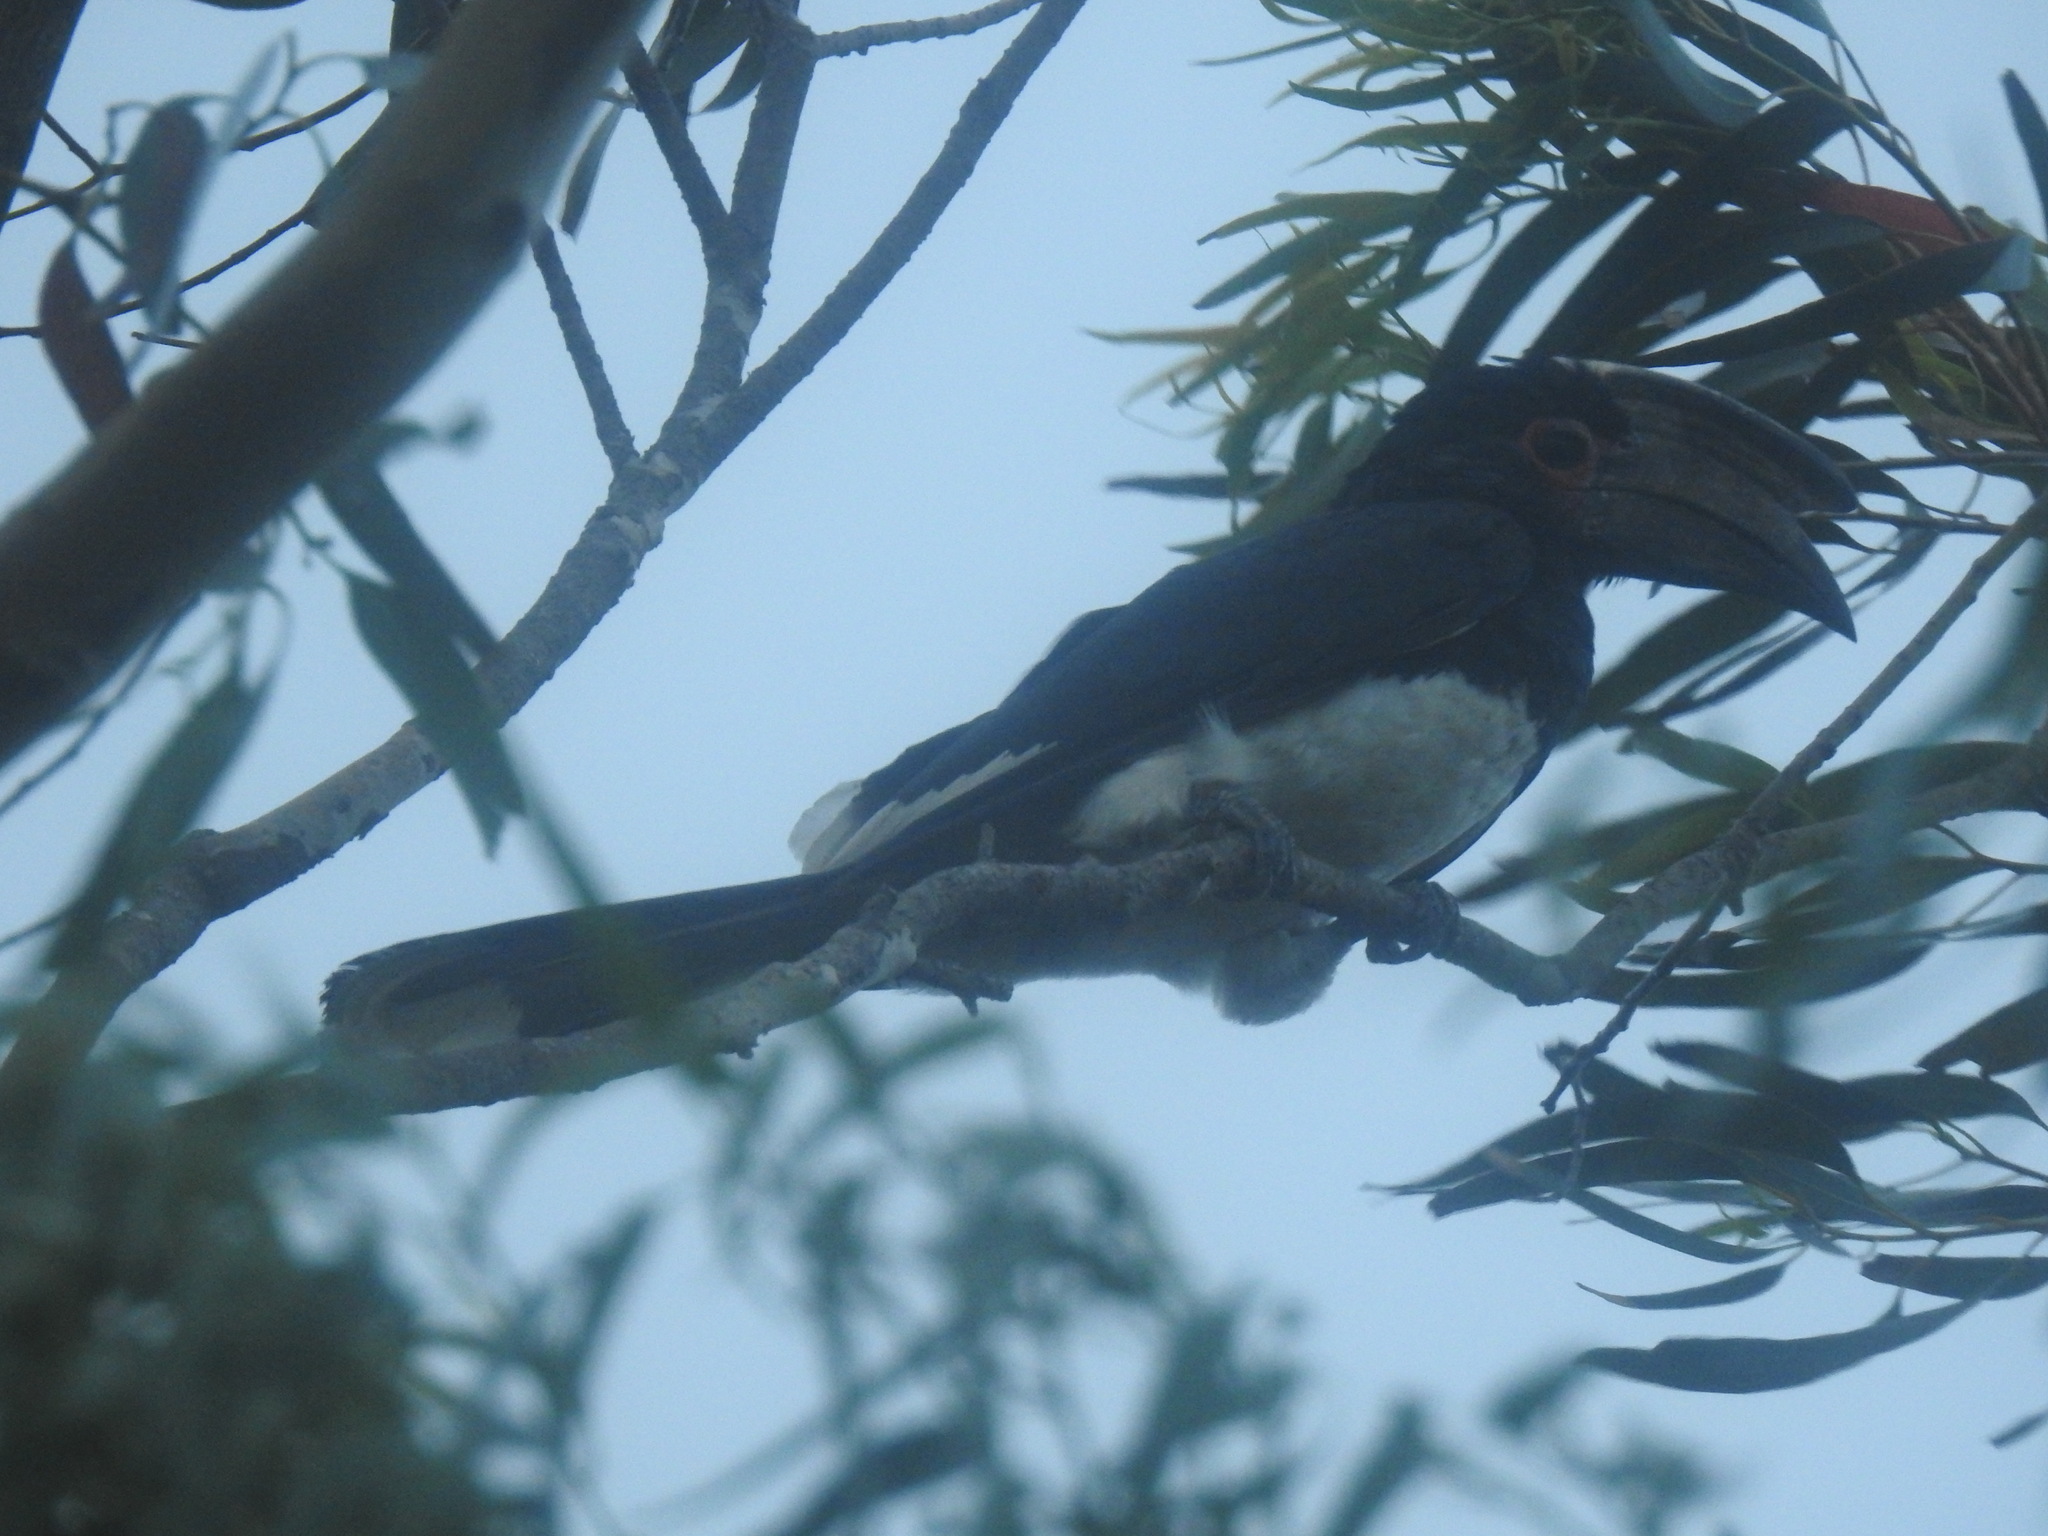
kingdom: Animalia
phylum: Chordata
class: Aves
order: Bucerotiformes
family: Bucerotidae
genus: Bycanistes
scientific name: Bycanistes bucinator
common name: Trumpeter hornbill
